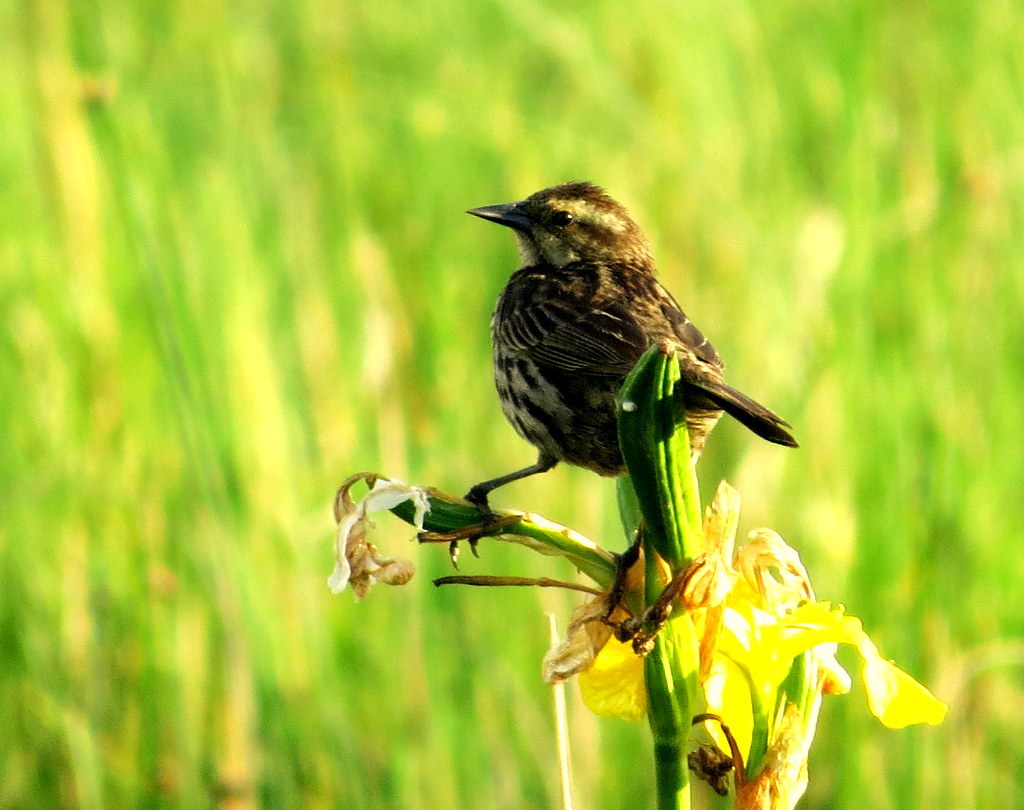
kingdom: Animalia
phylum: Chordata
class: Aves
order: Passeriformes
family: Icteridae
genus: Agelasticus
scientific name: Agelasticus thilius
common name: Yellow-winged blackbird
